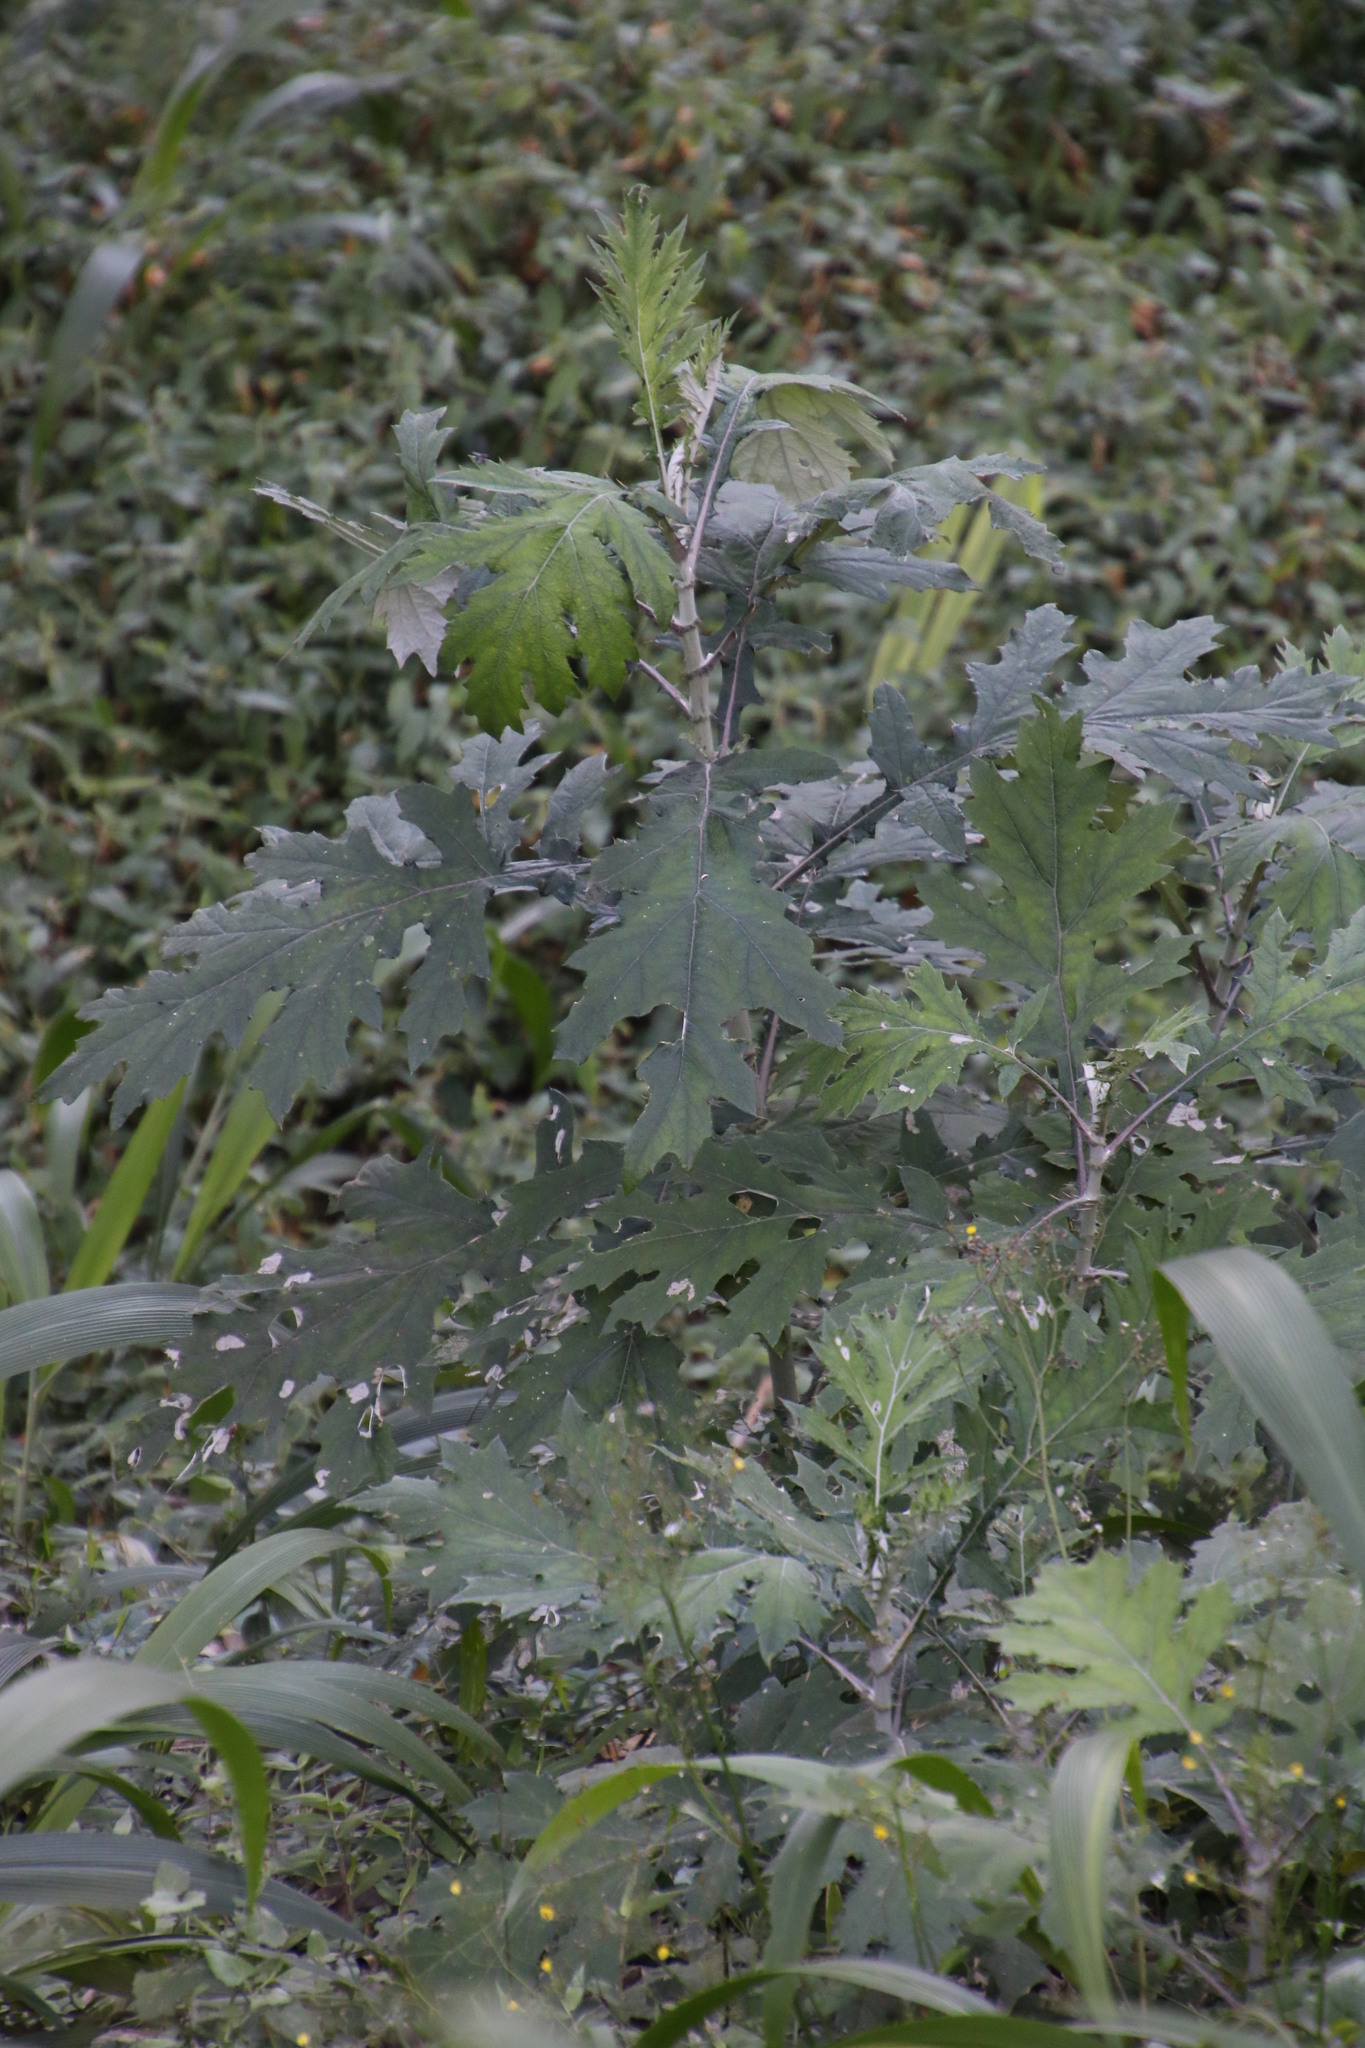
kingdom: Plantae
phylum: Tracheophyta
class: Magnoliopsida
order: Asterales
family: Asteraceae
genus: Berkheya
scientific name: Berkheya bipinnatifida
